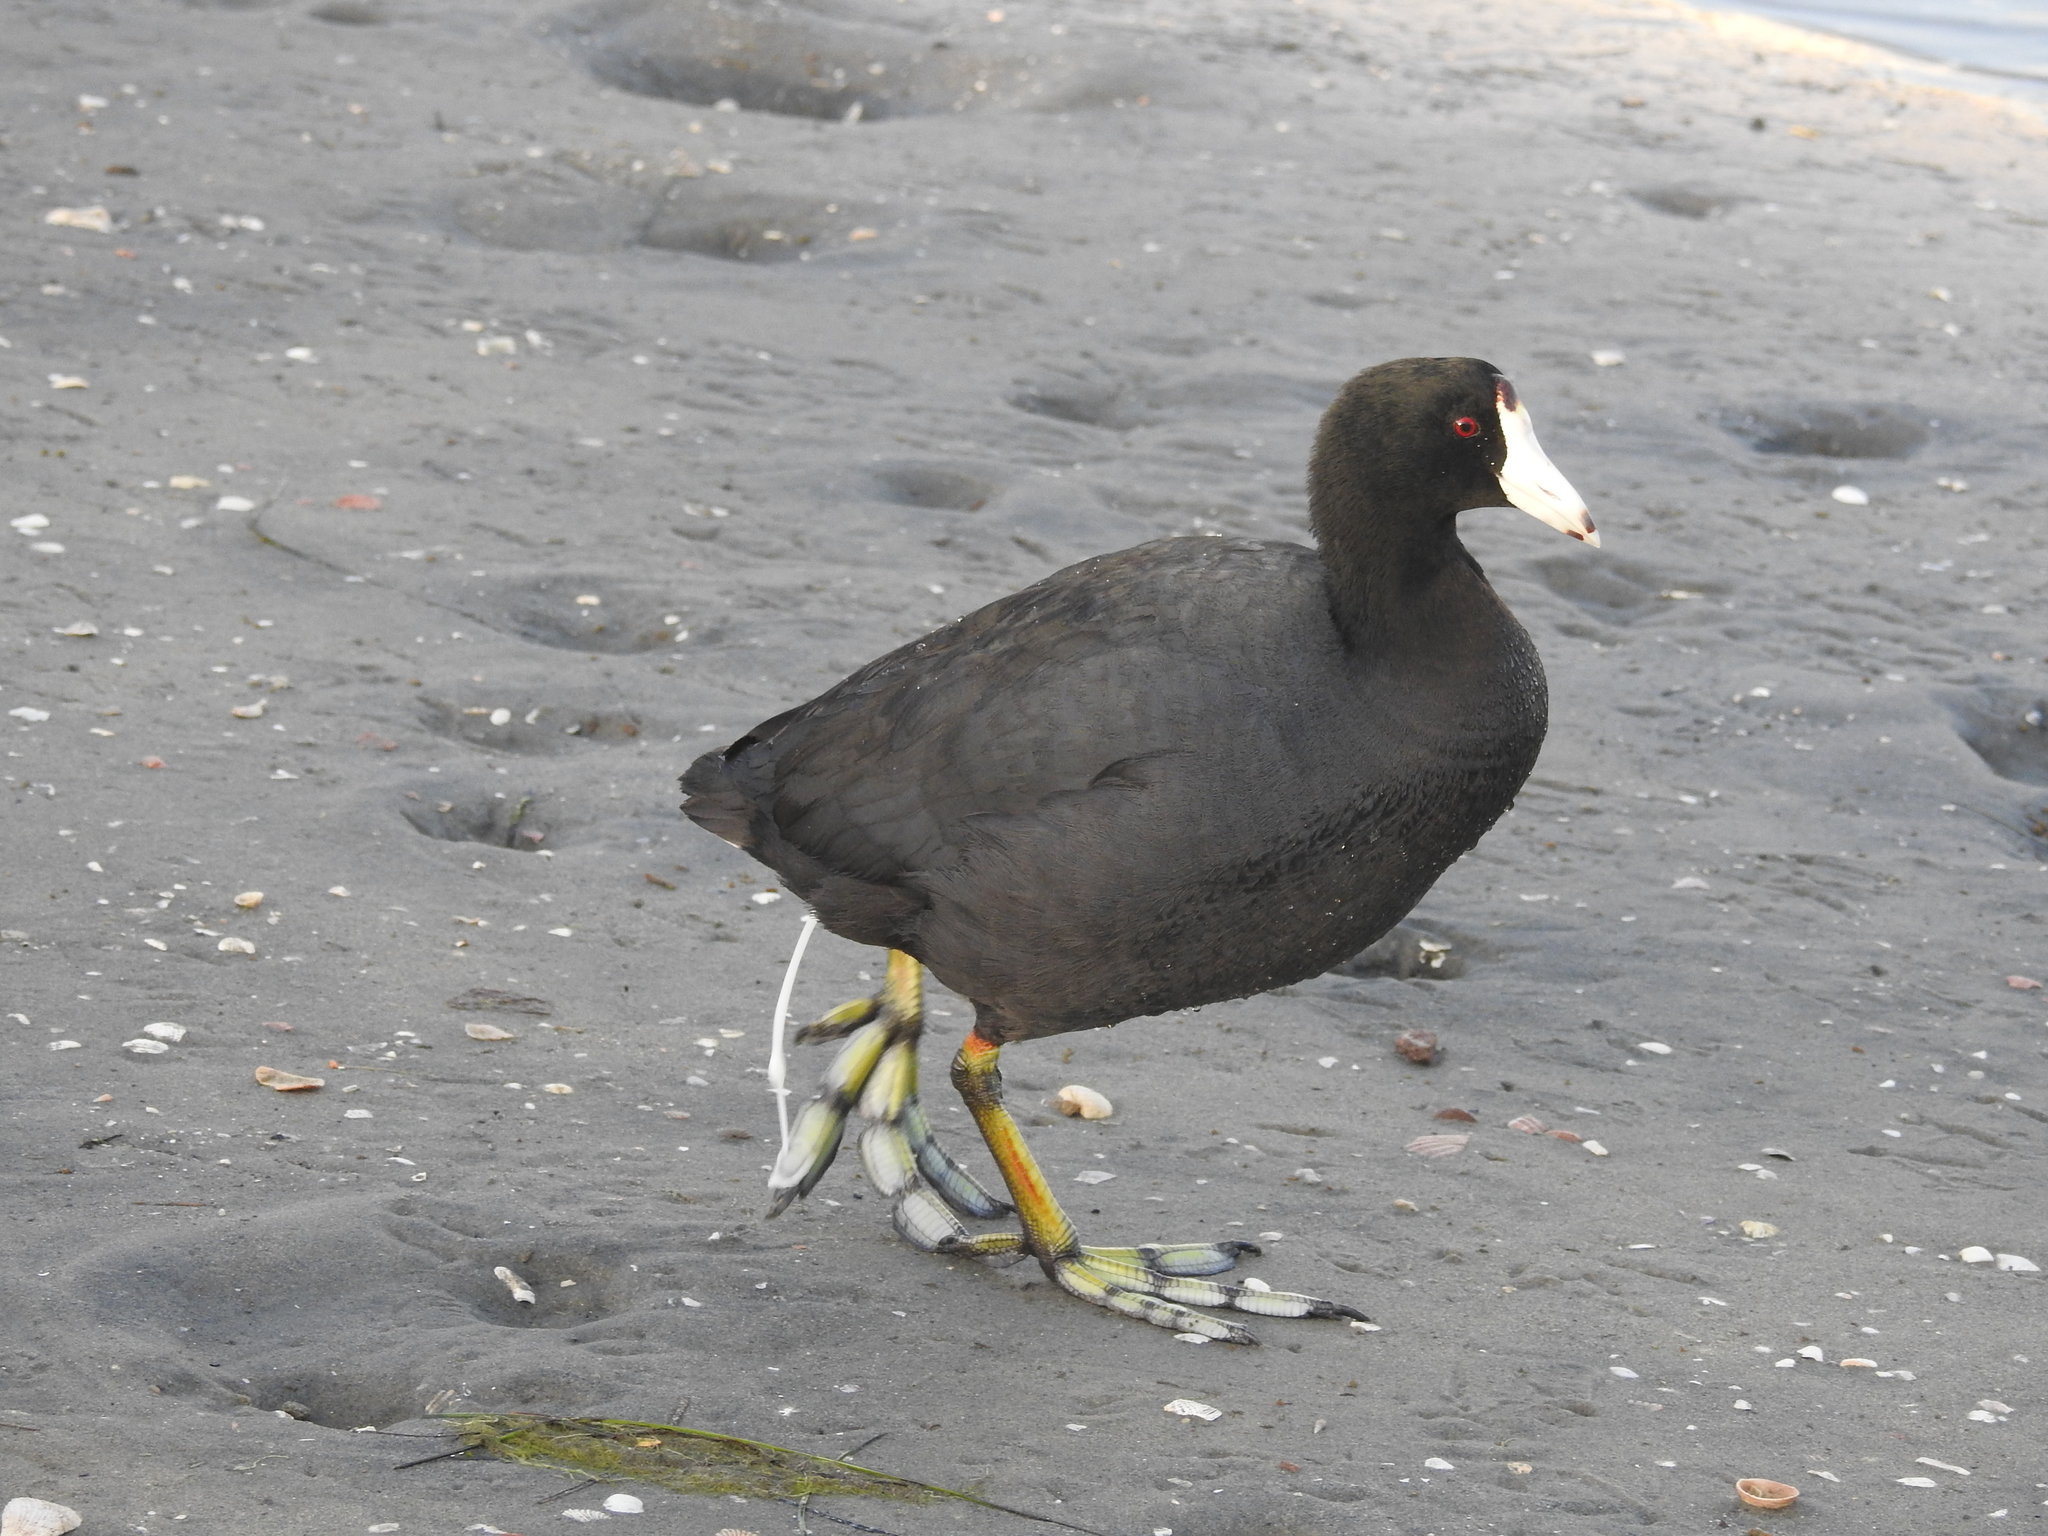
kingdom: Animalia
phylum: Chordata
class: Aves
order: Gruiformes
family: Rallidae
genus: Fulica
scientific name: Fulica americana
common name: American coot
